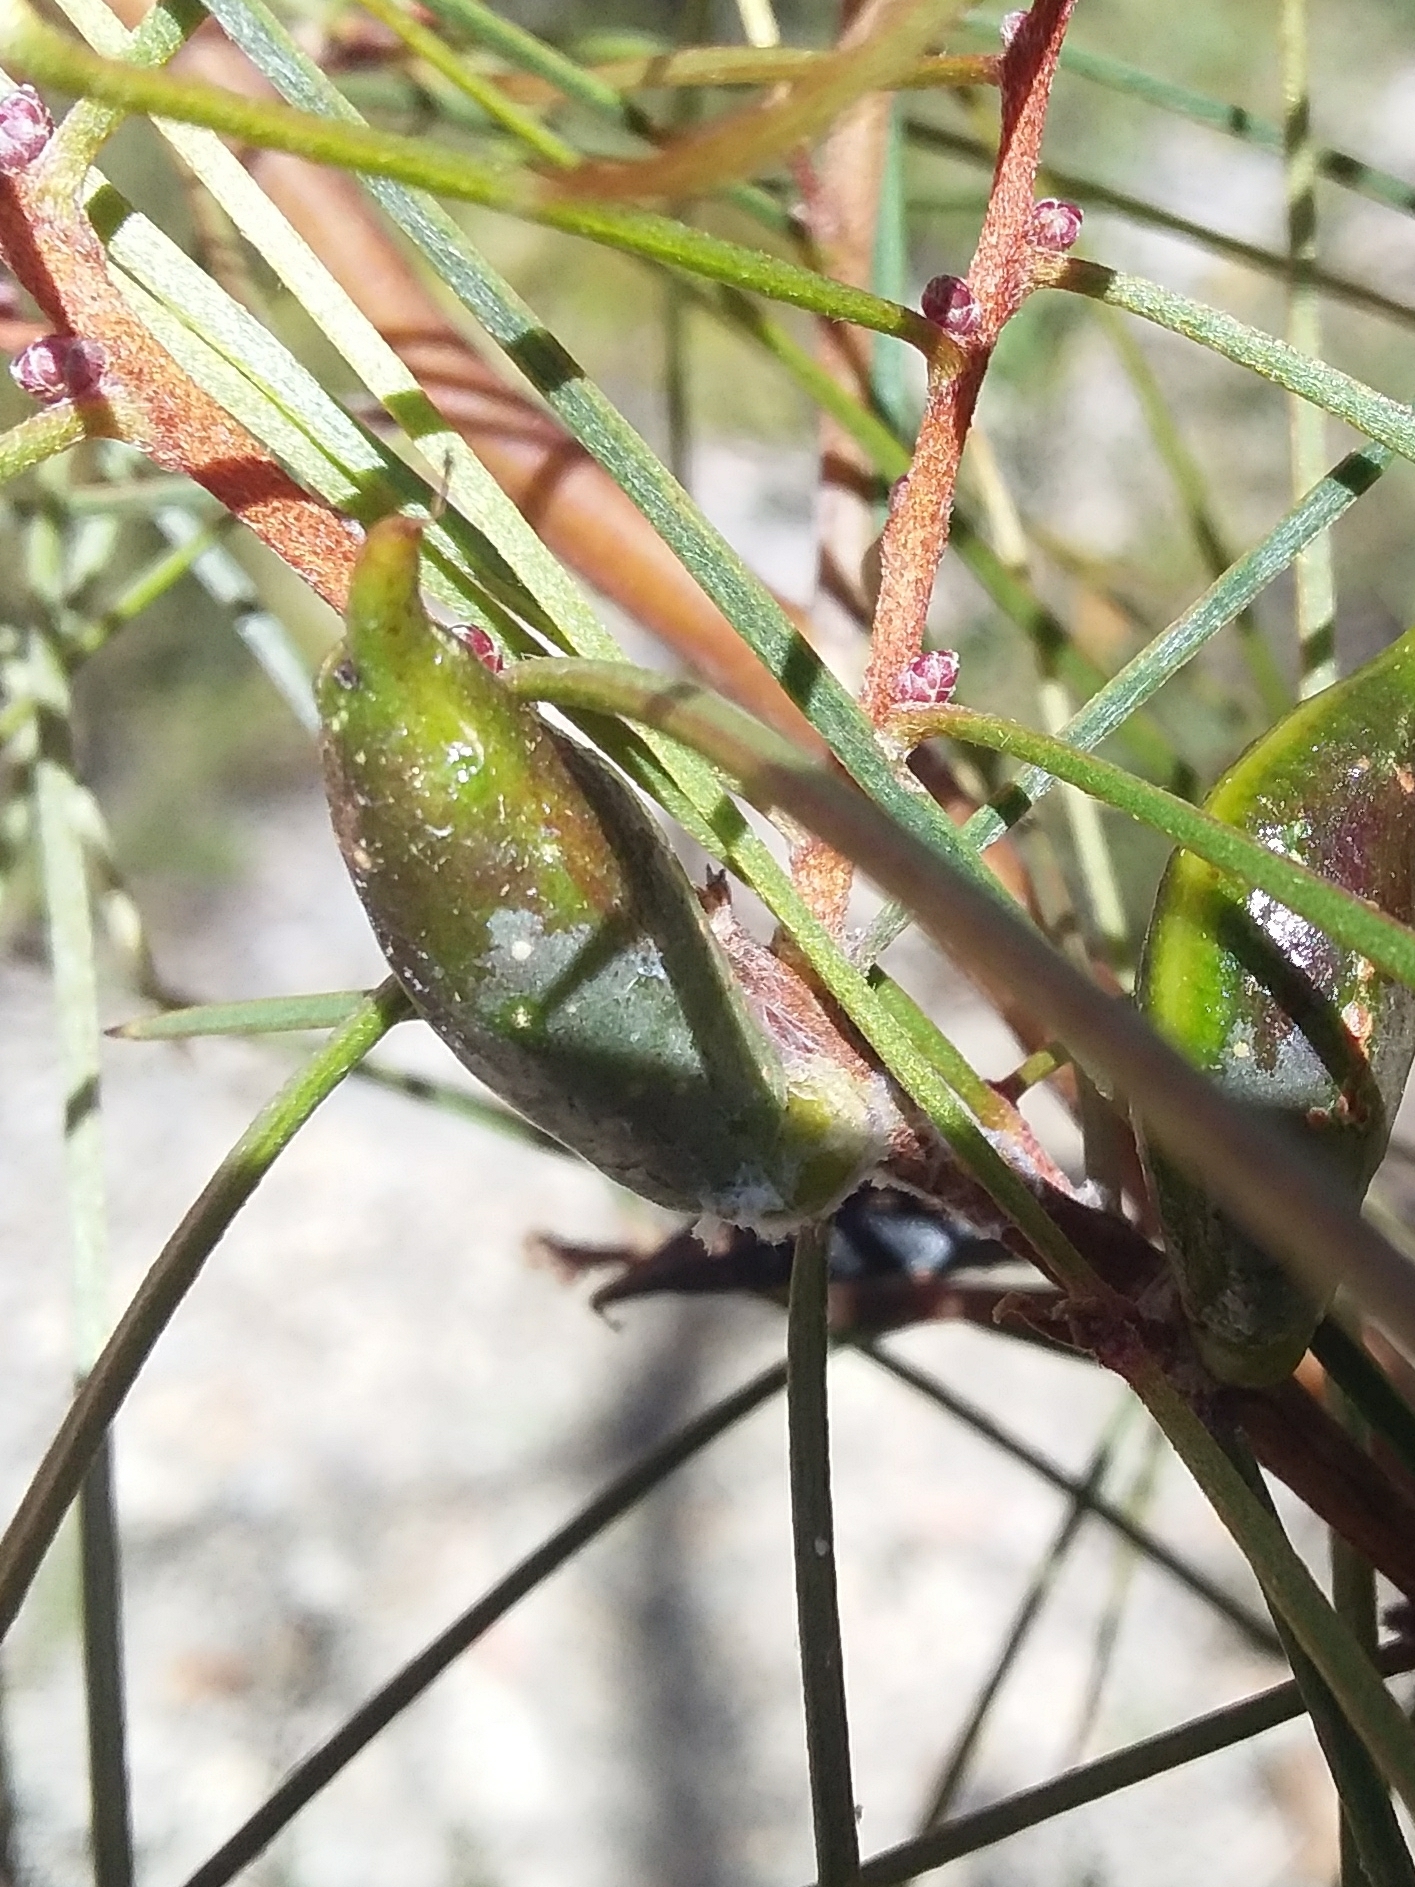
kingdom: Plantae
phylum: Tracheophyta
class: Magnoliopsida
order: Proteales
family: Proteaceae
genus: Hakea
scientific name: Hakea carinata
